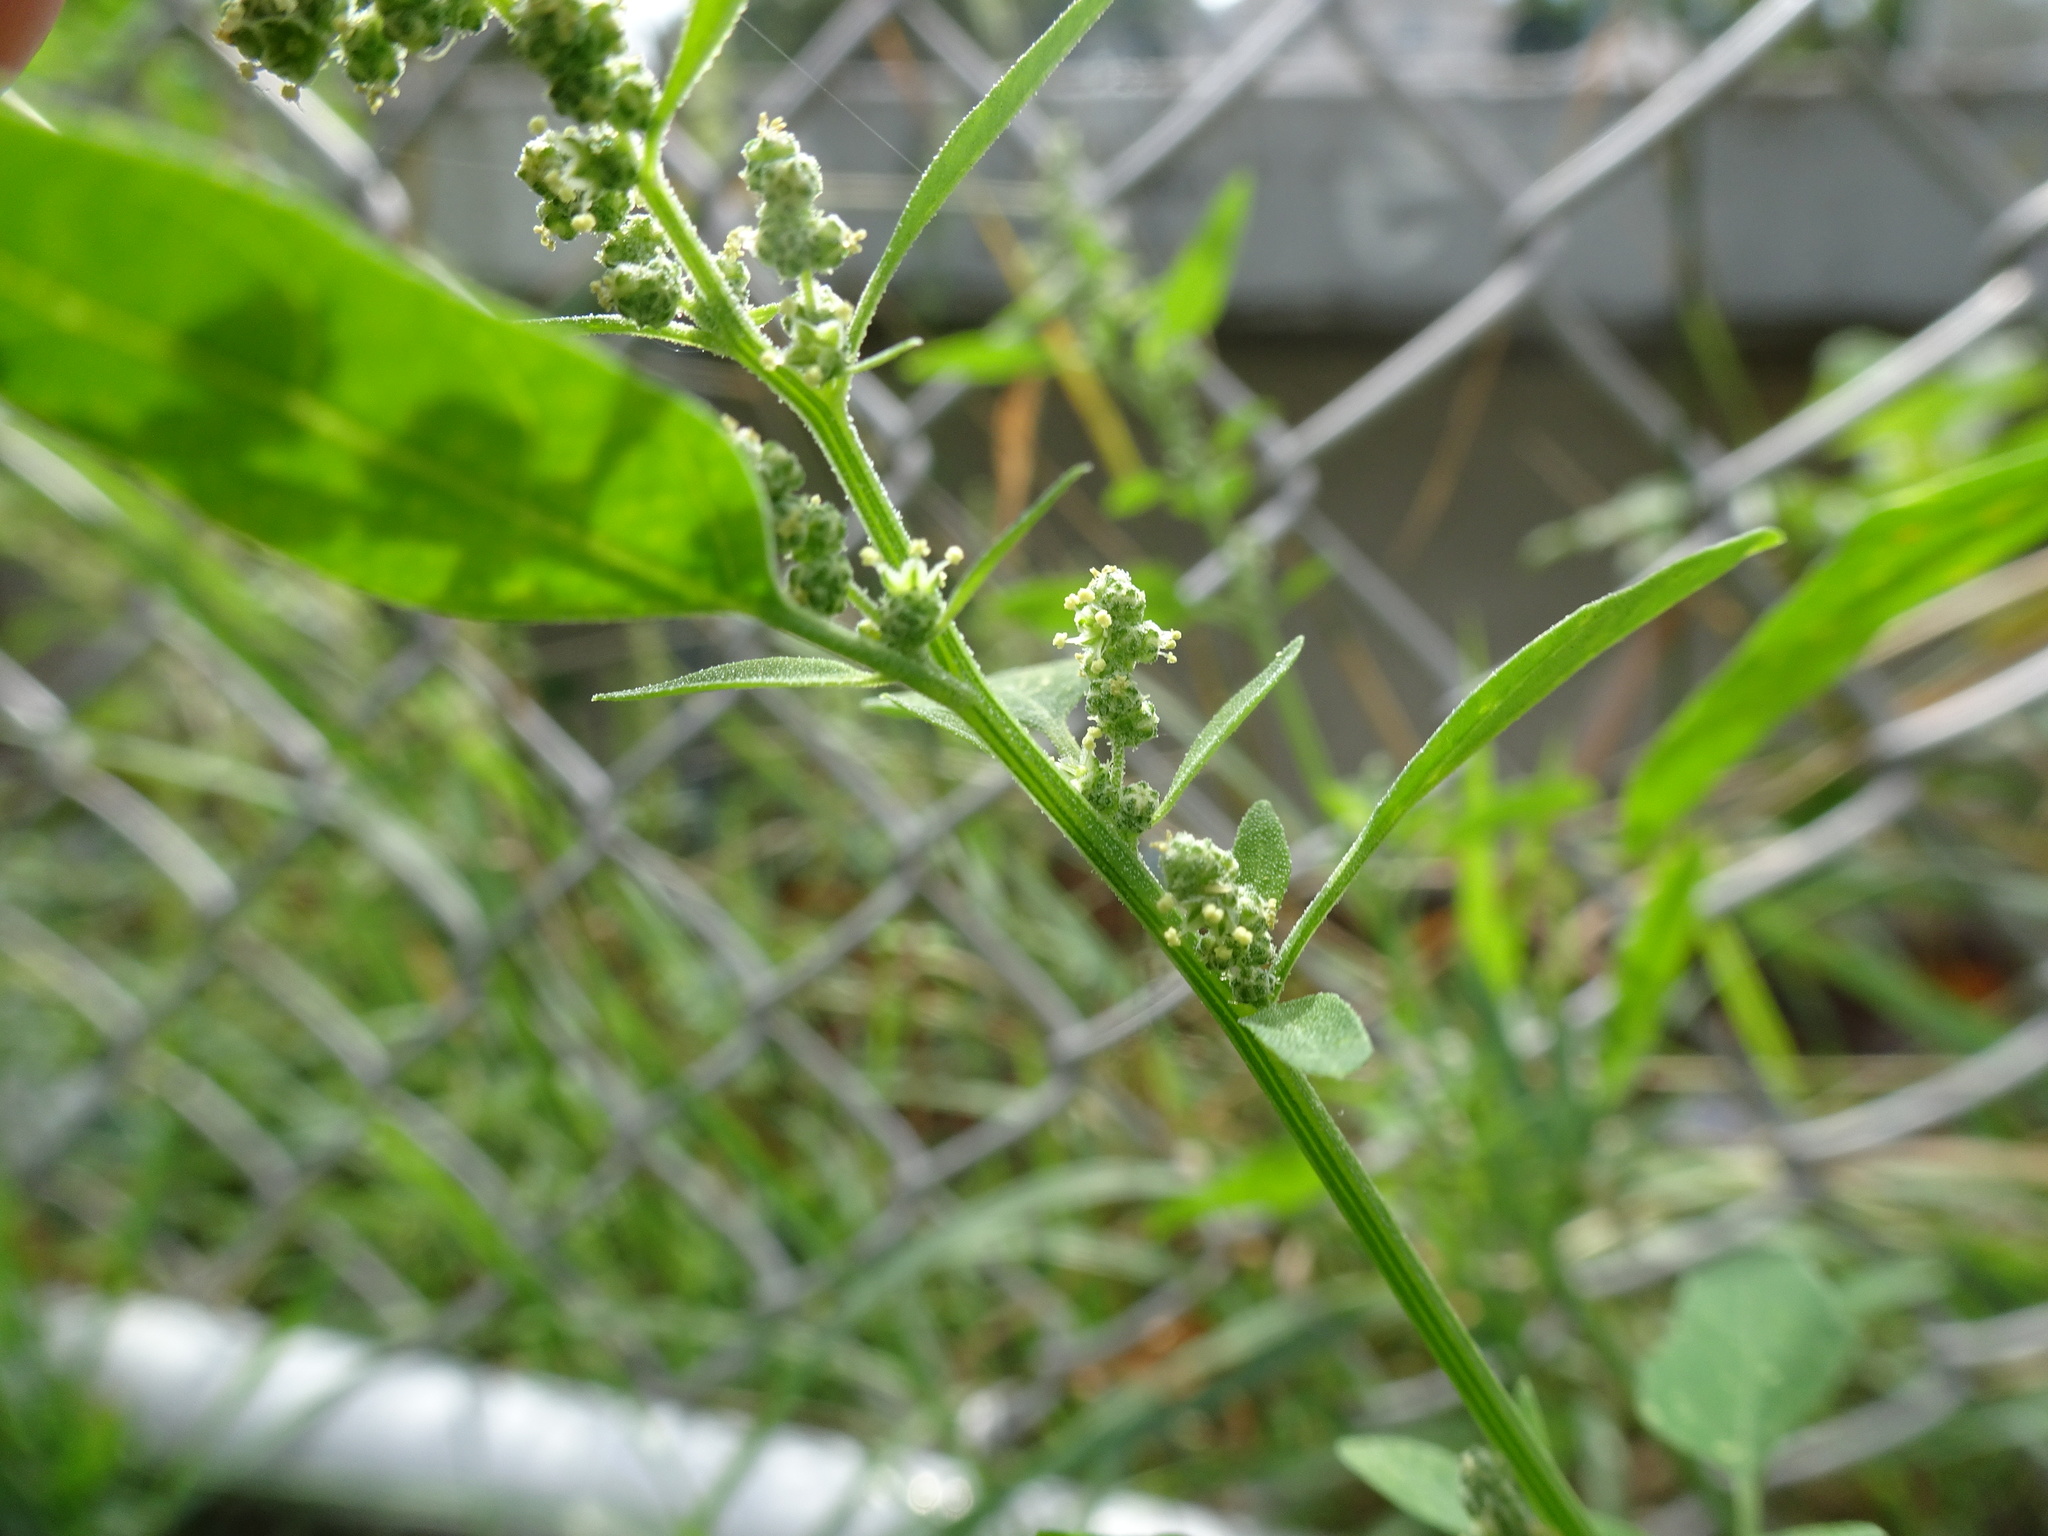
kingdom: Plantae
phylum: Tracheophyta
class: Magnoliopsida
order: Caryophyllales
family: Amaranthaceae
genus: Chenopodium
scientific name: Chenopodium album
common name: Fat-hen
